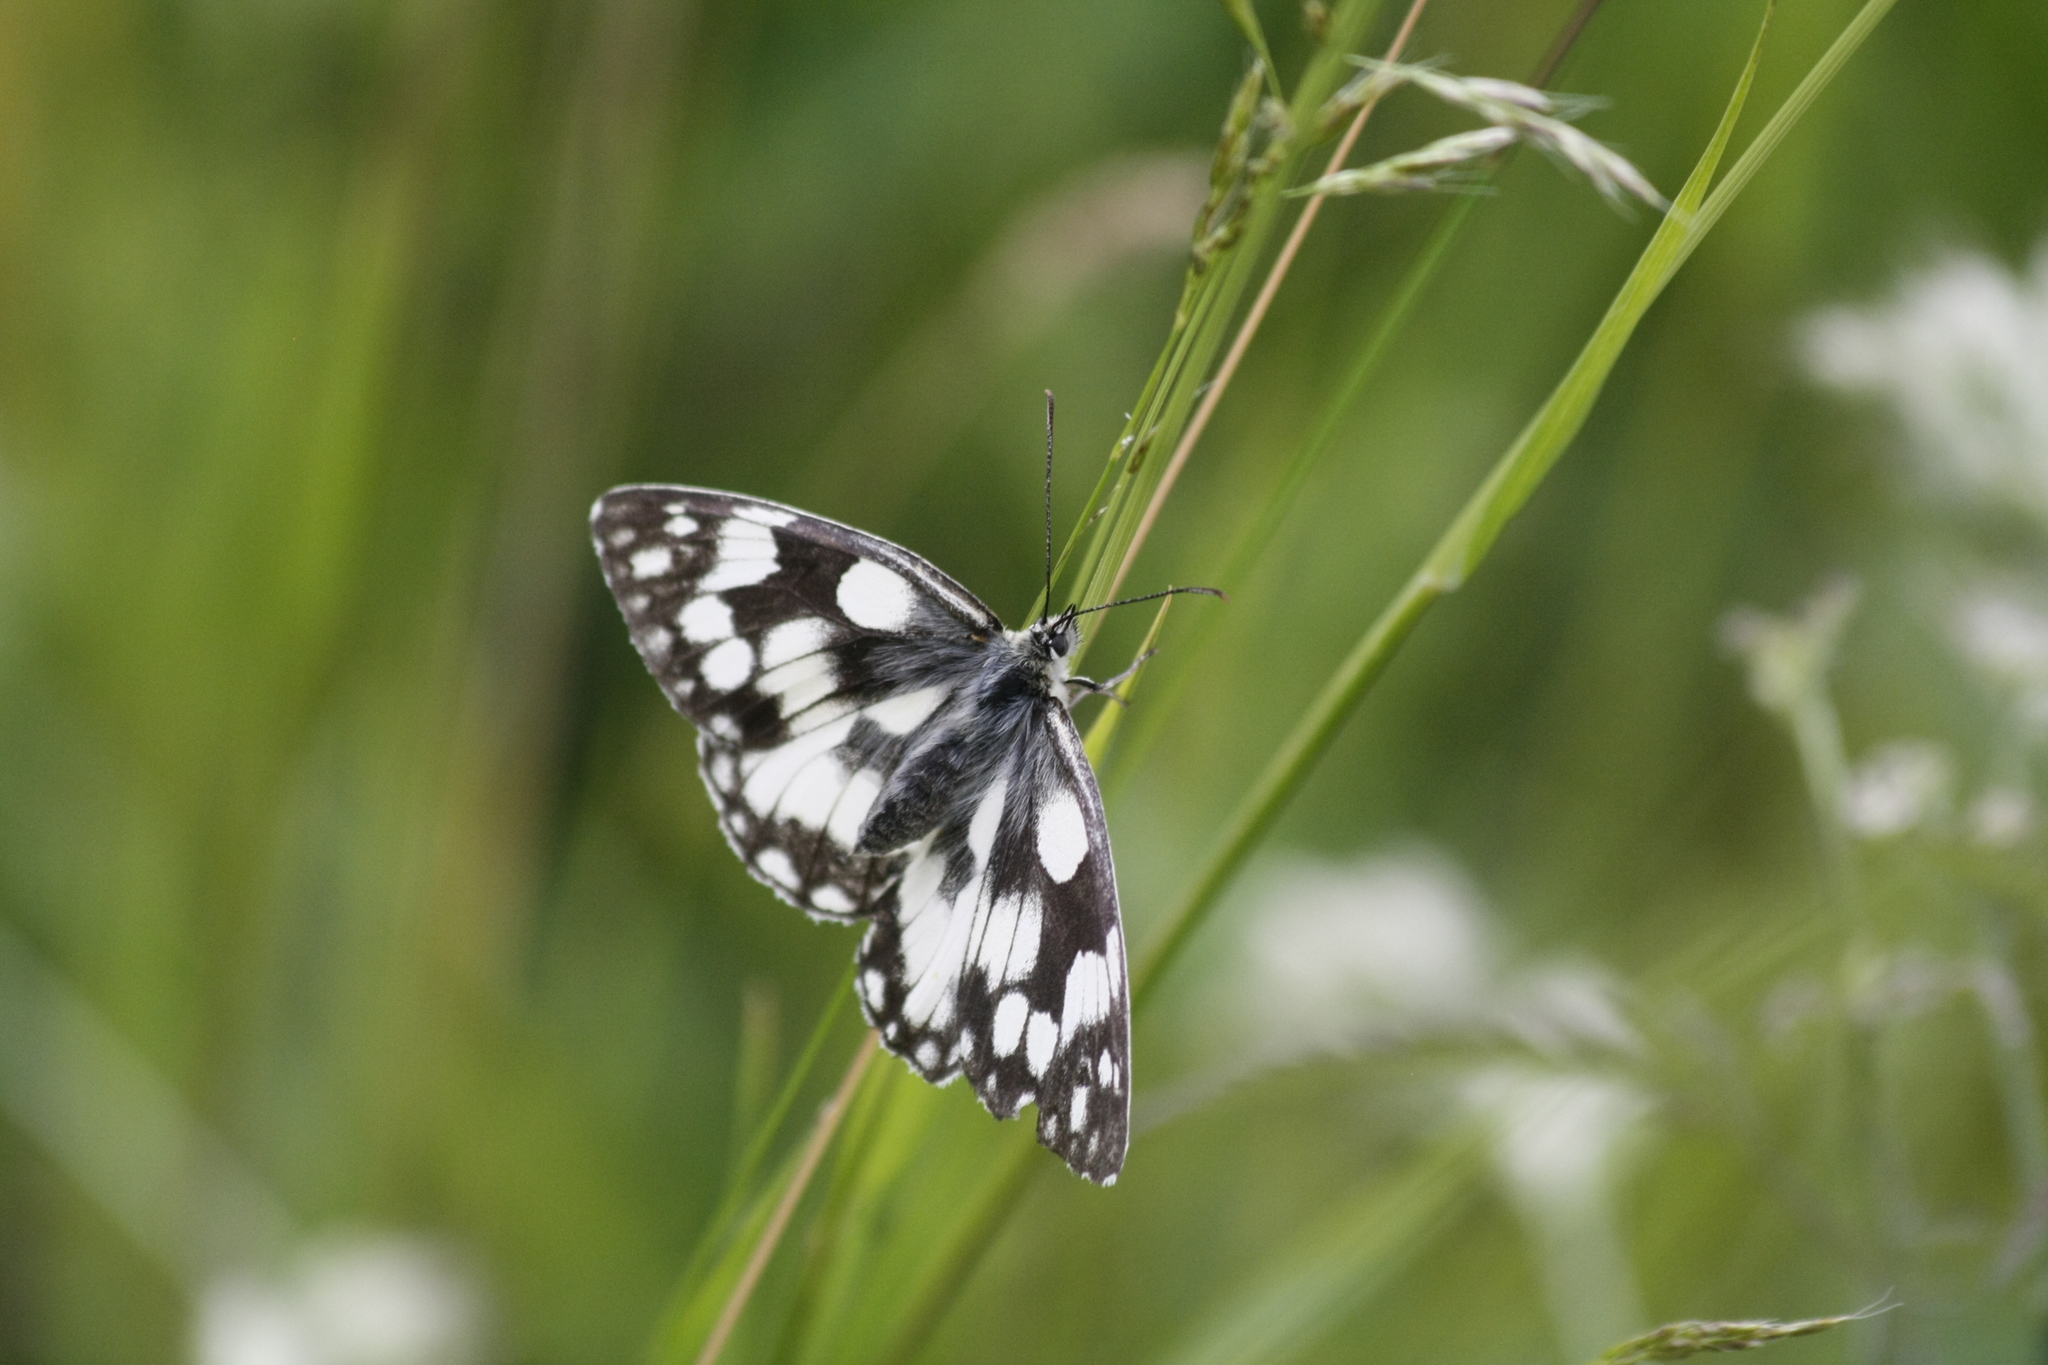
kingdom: Animalia
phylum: Arthropoda
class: Insecta
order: Lepidoptera
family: Nymphalidae
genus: Melanargia
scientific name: Melanargia galathea
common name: Marbled white
